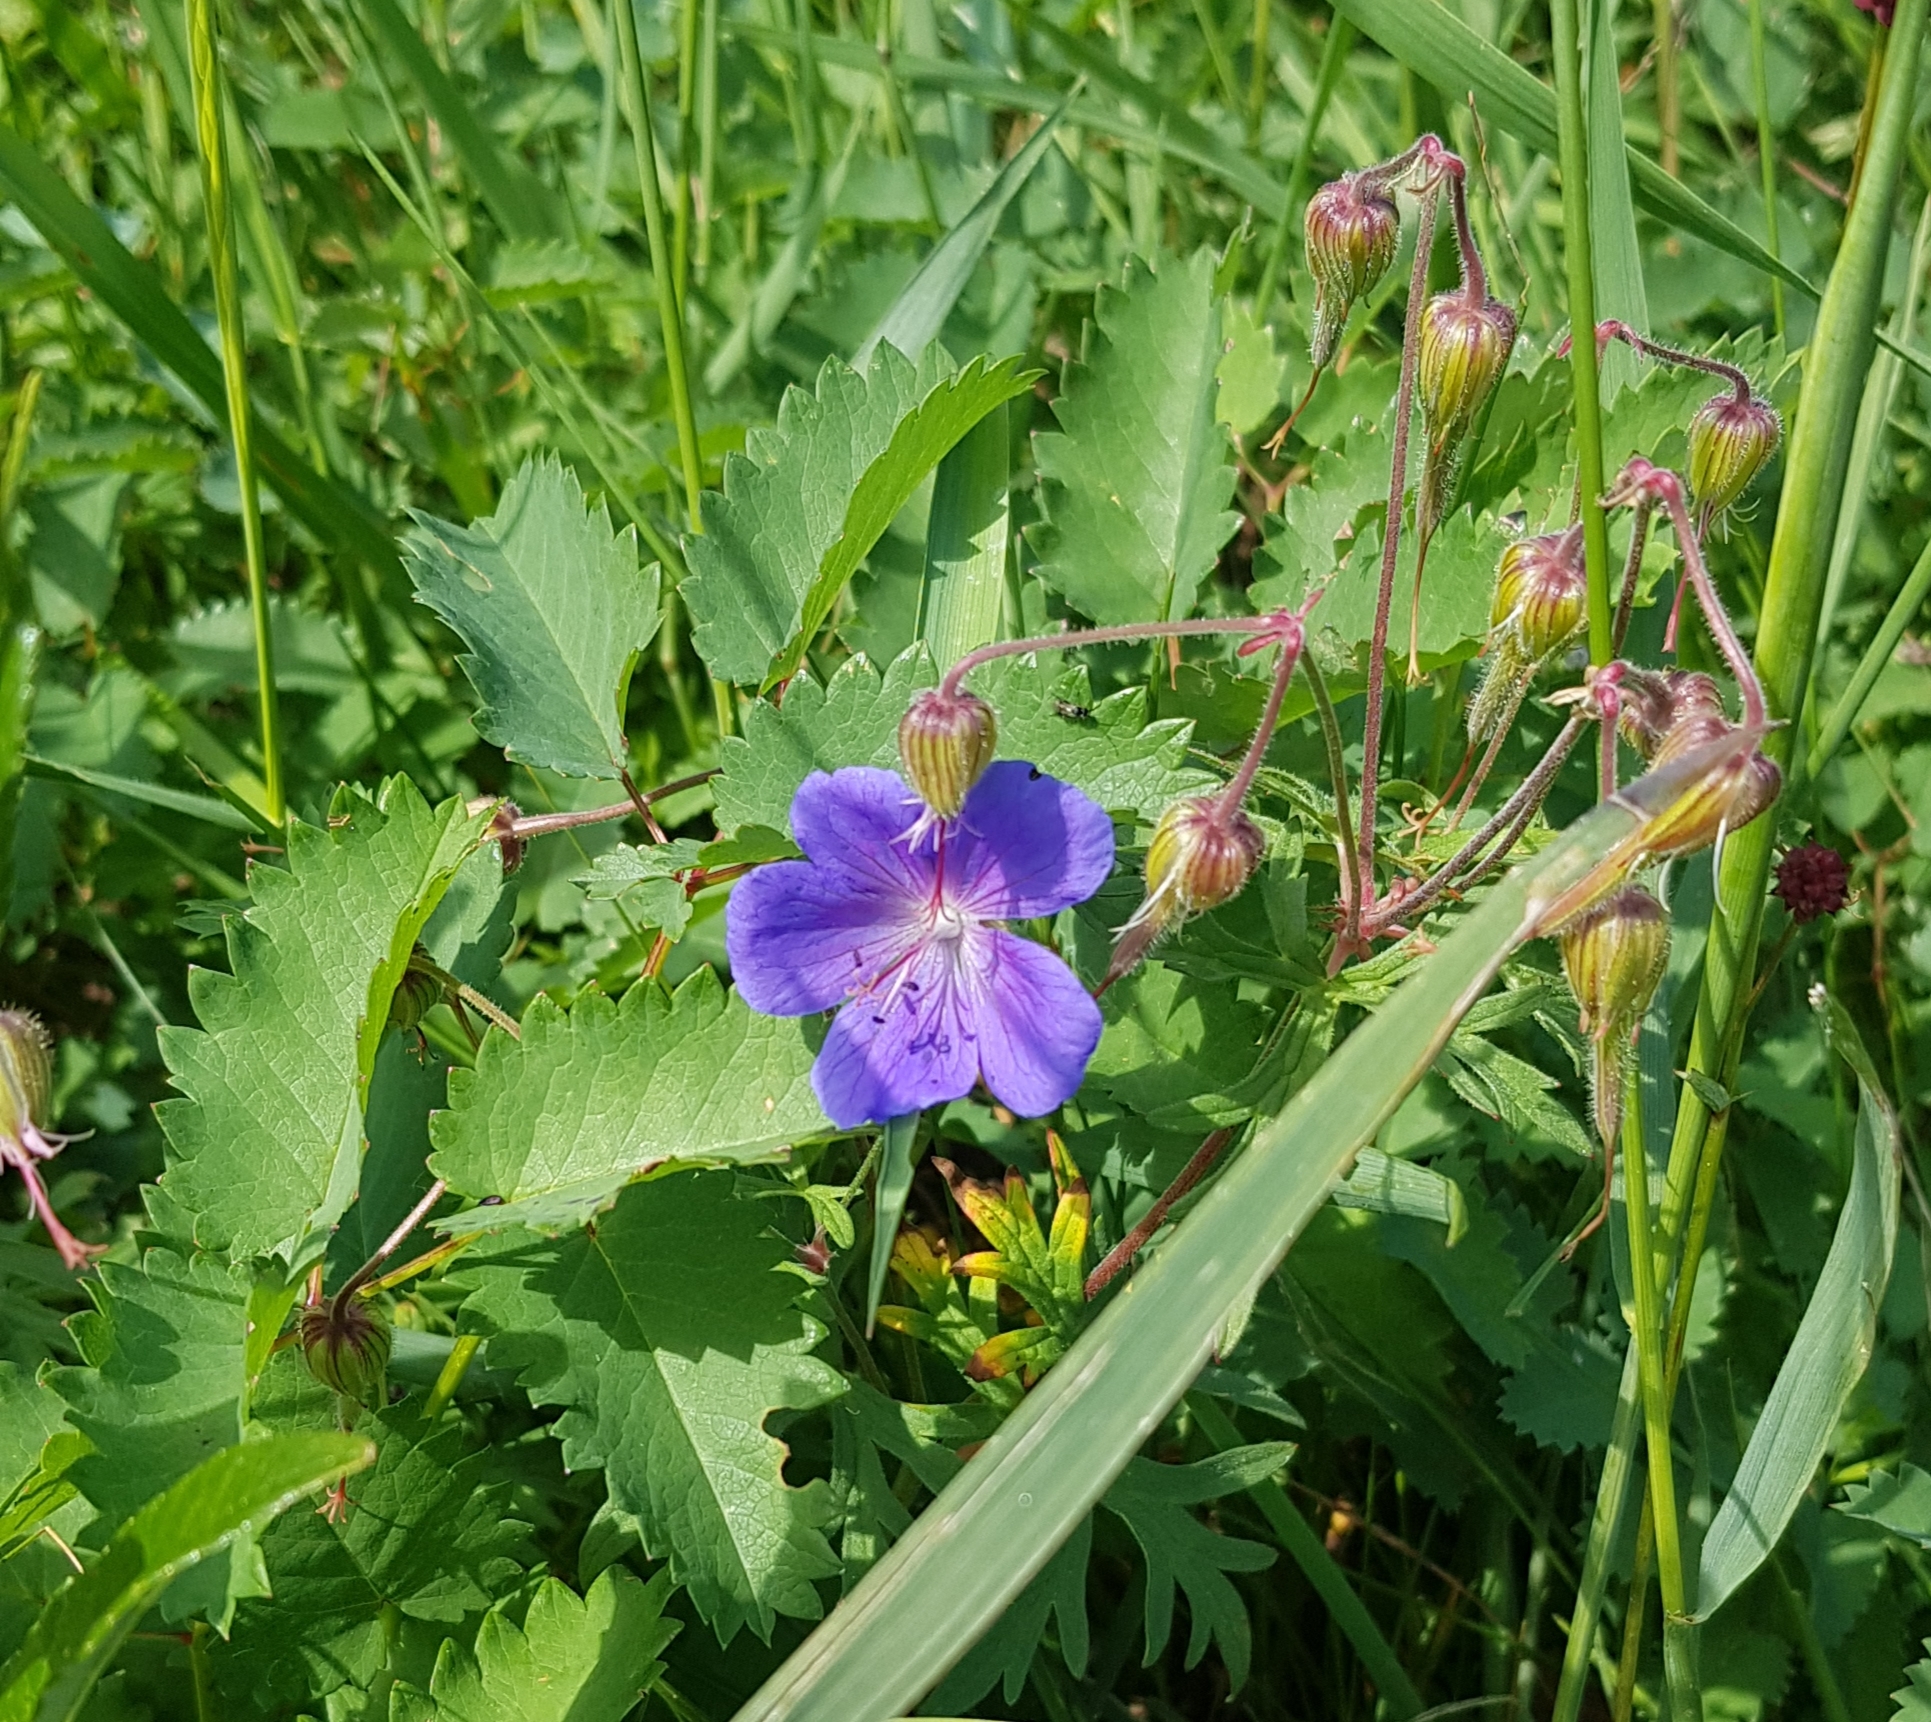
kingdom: Plantae
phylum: Tracheophyta
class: Magnoliopsida
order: Geraniales
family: Geraniaceae
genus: Geranium
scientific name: Geranium pratense
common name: Meadow crane's-bill
